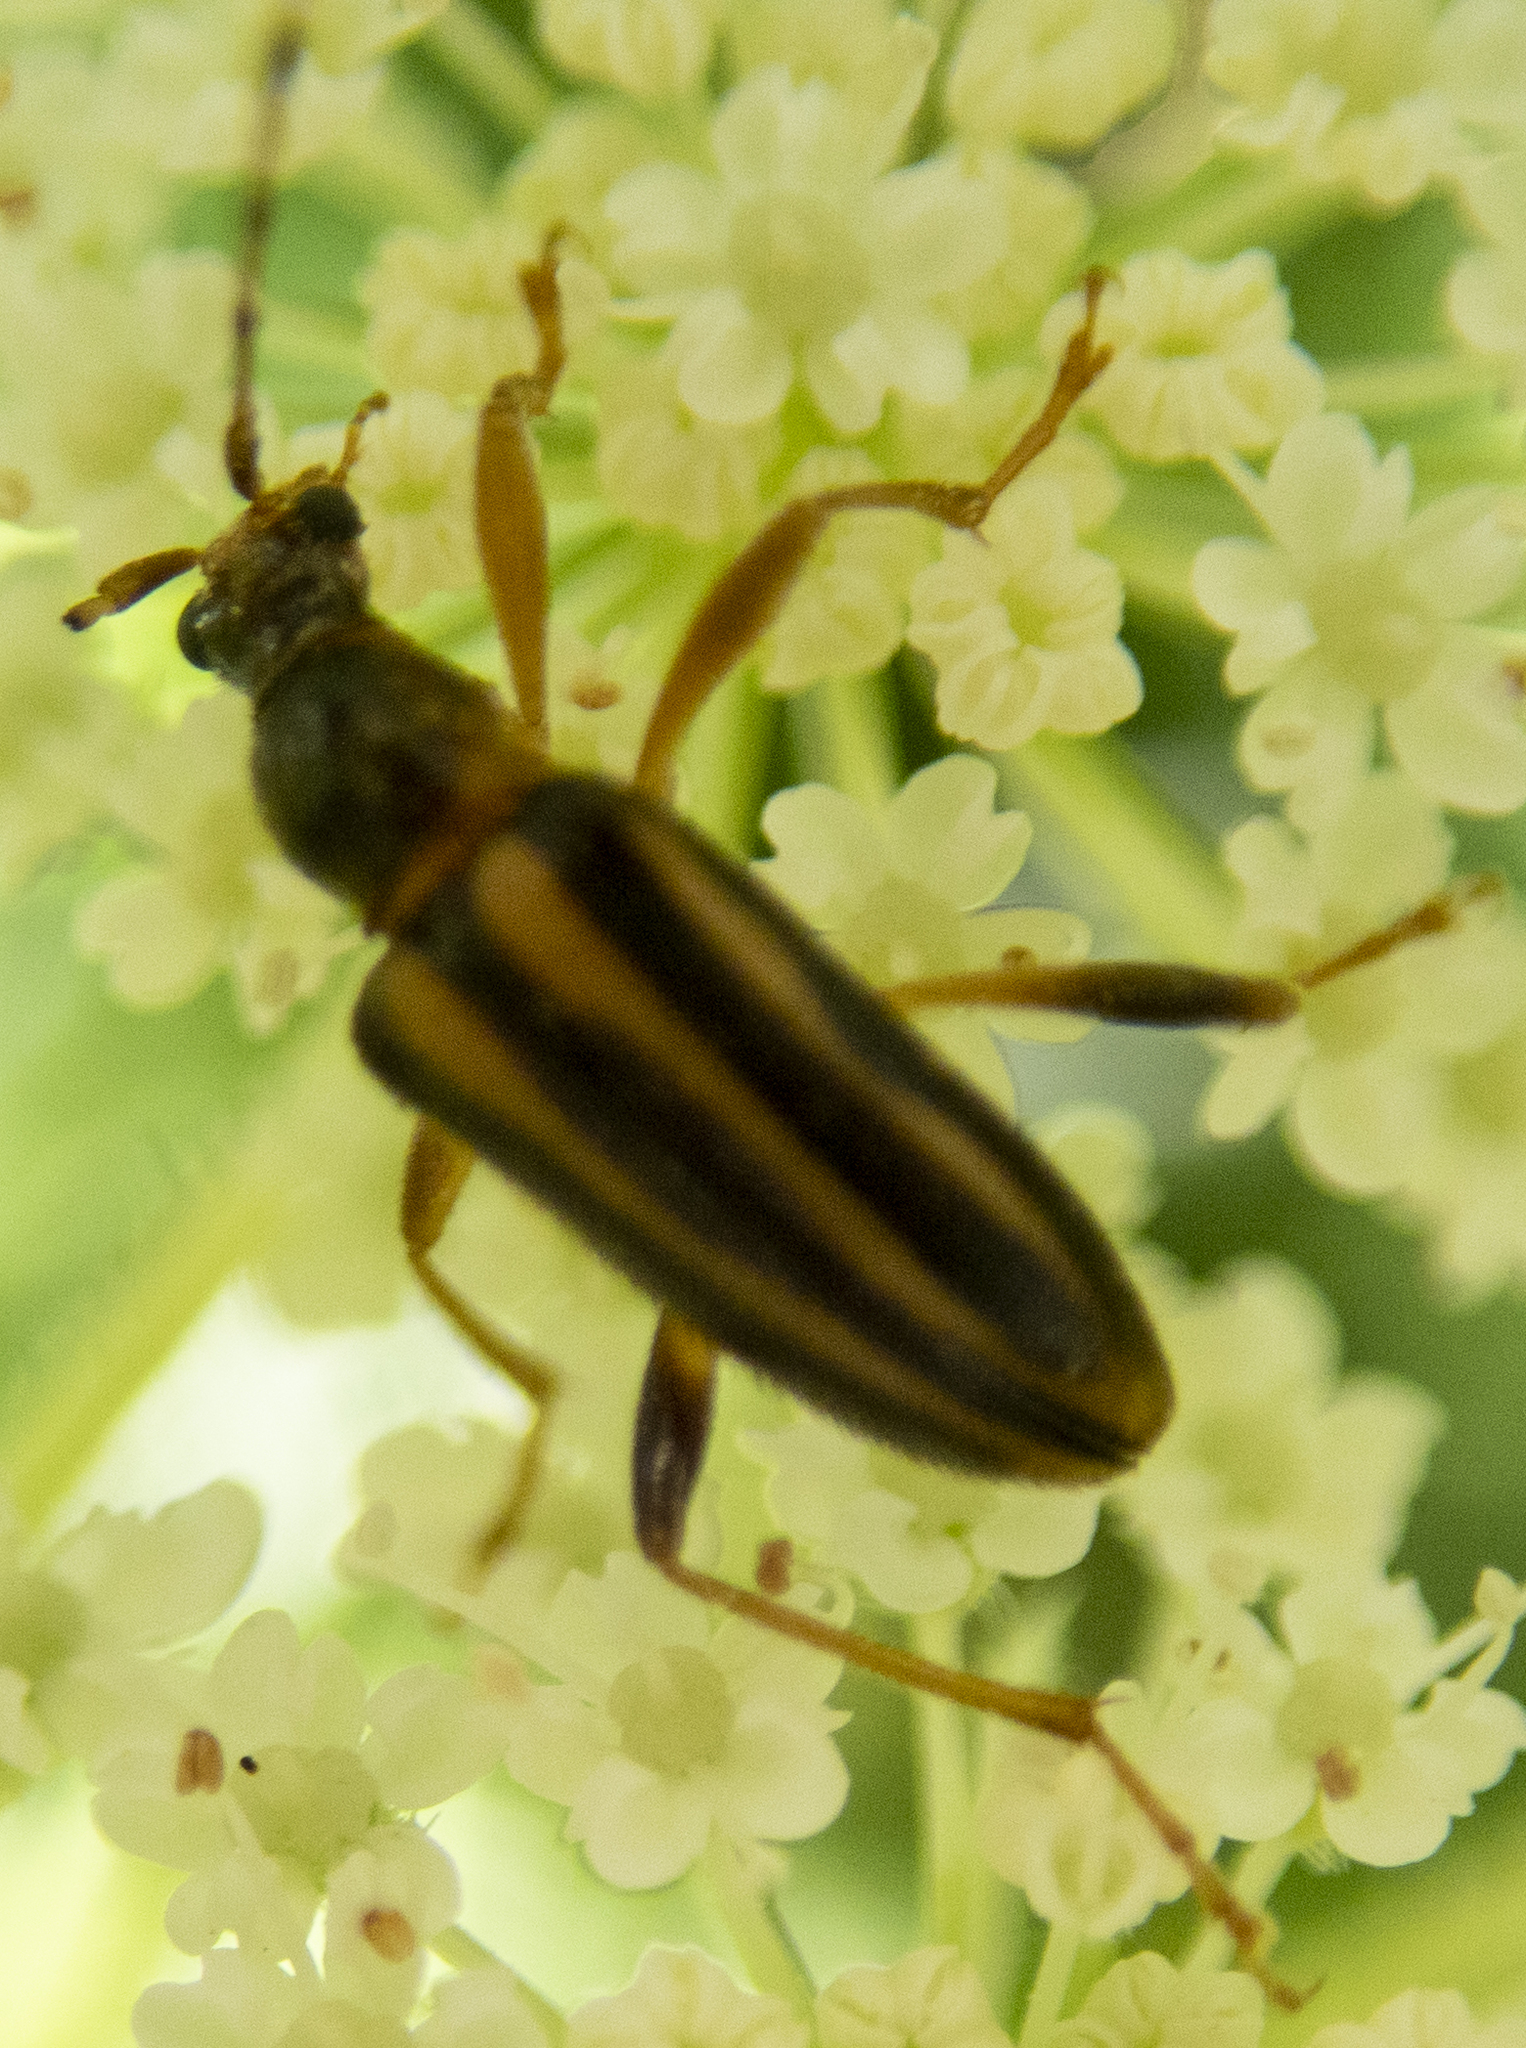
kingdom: Animalia
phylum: Arthropoda
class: Insecta
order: Coleoptera
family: Cerambycidae
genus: Metacmaeops
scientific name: Metacmaeops vittata
